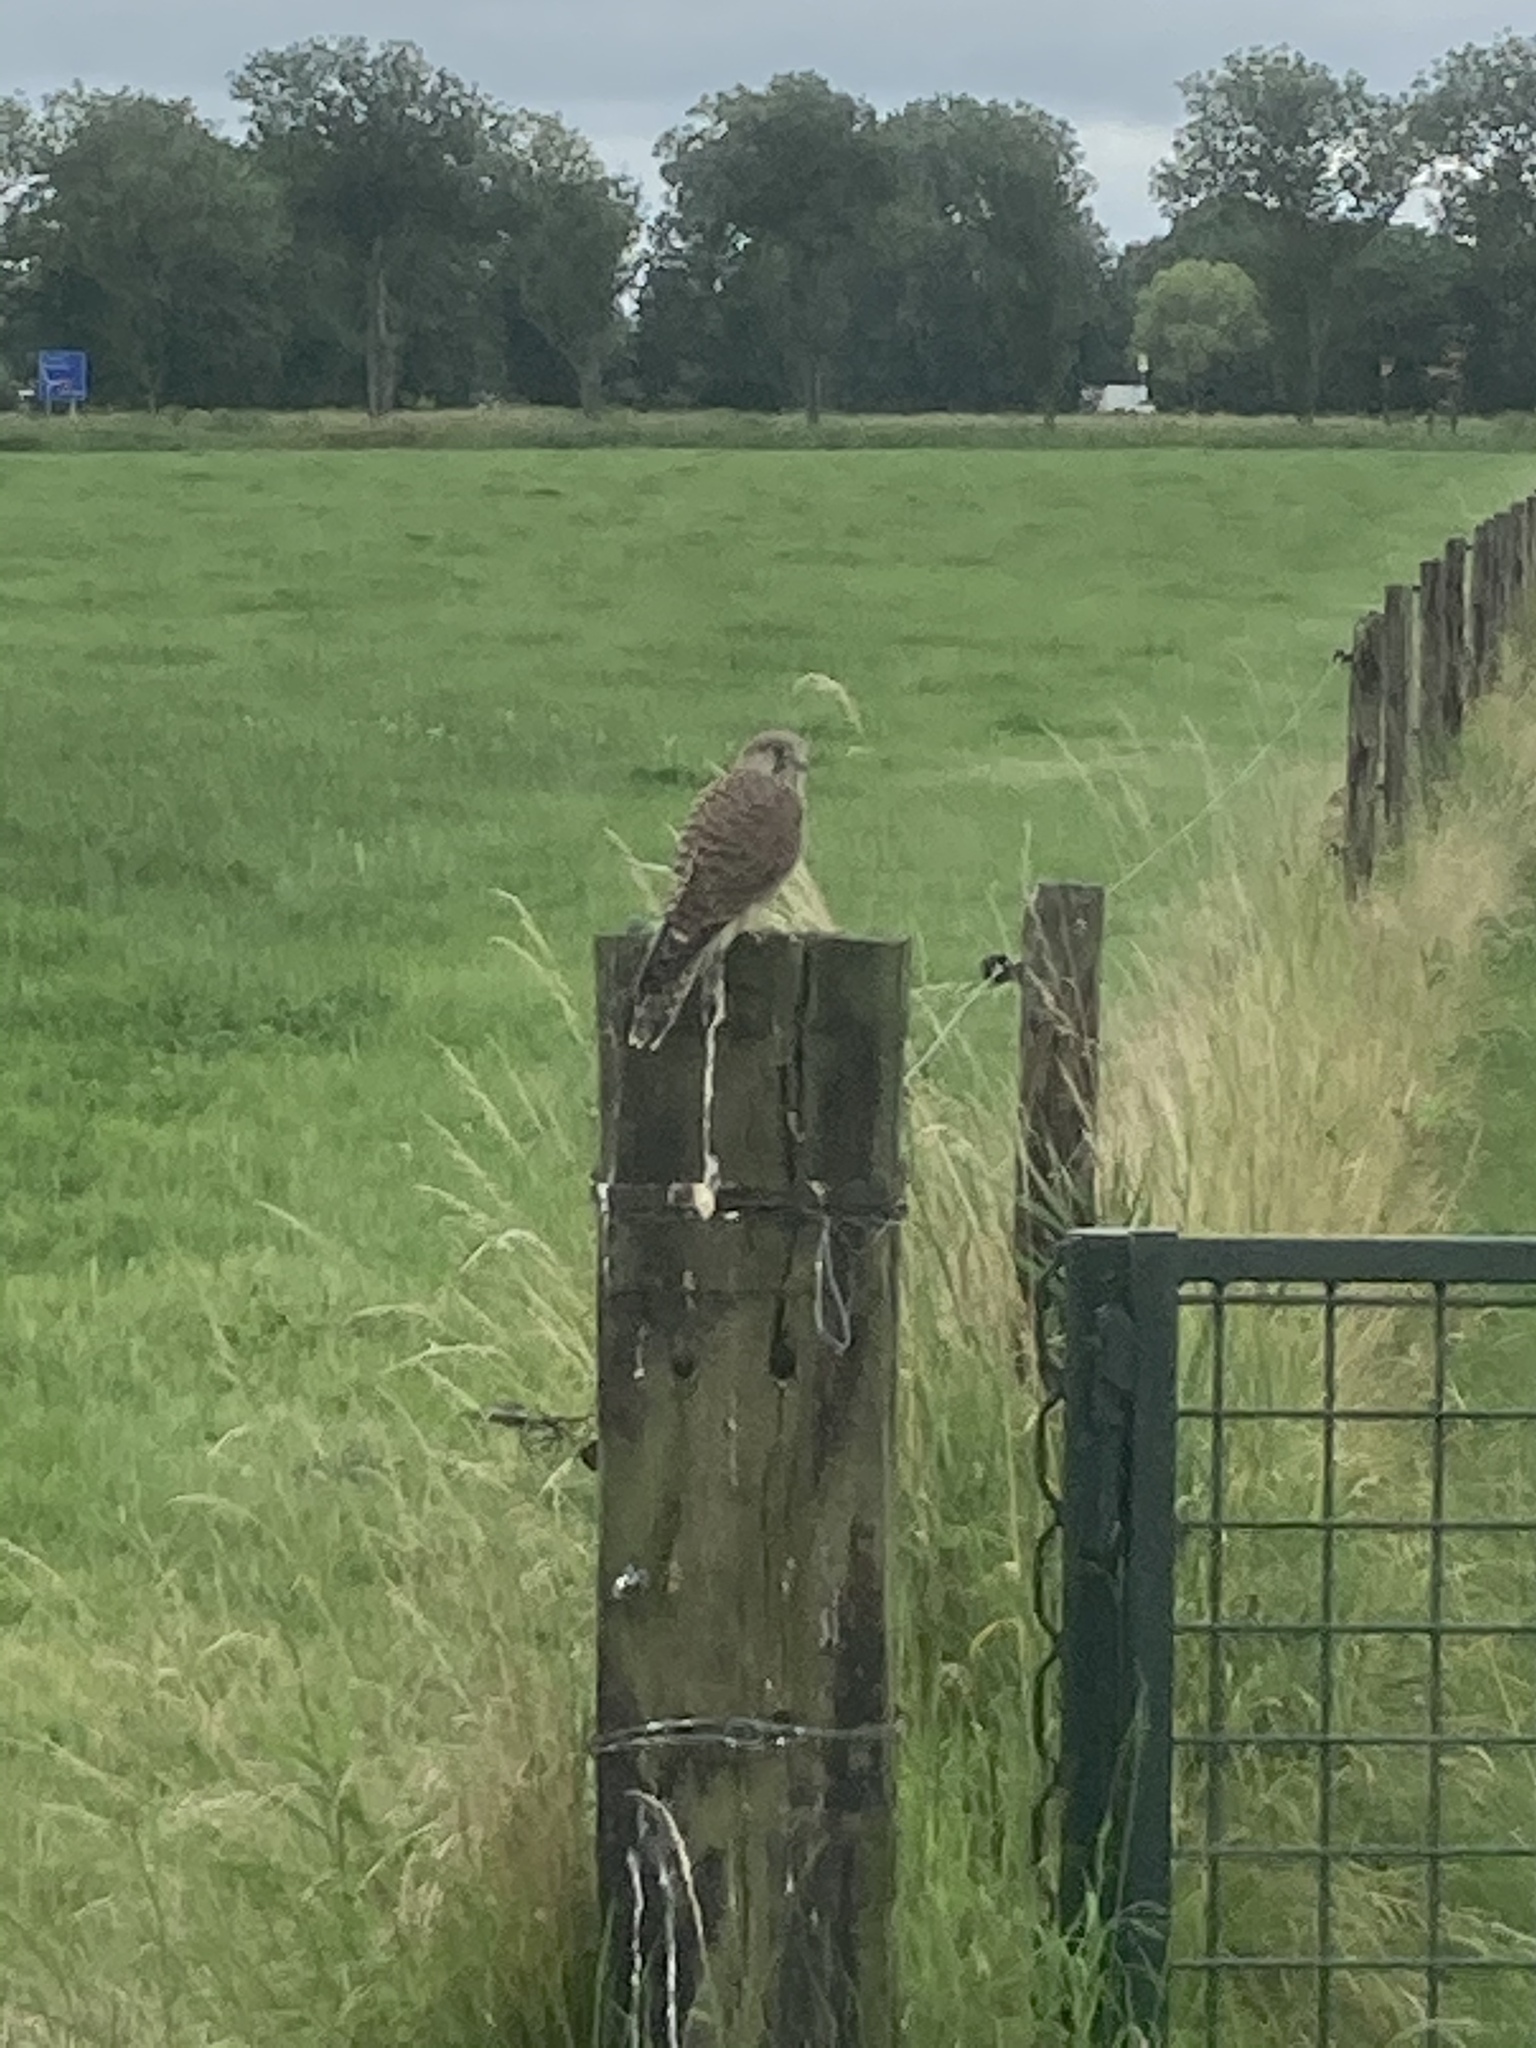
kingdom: Animalia
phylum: Chordata
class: Aves
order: Falconiformes
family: Falconidae
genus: Falco
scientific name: Falco tinnunculus
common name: Common kestrel
